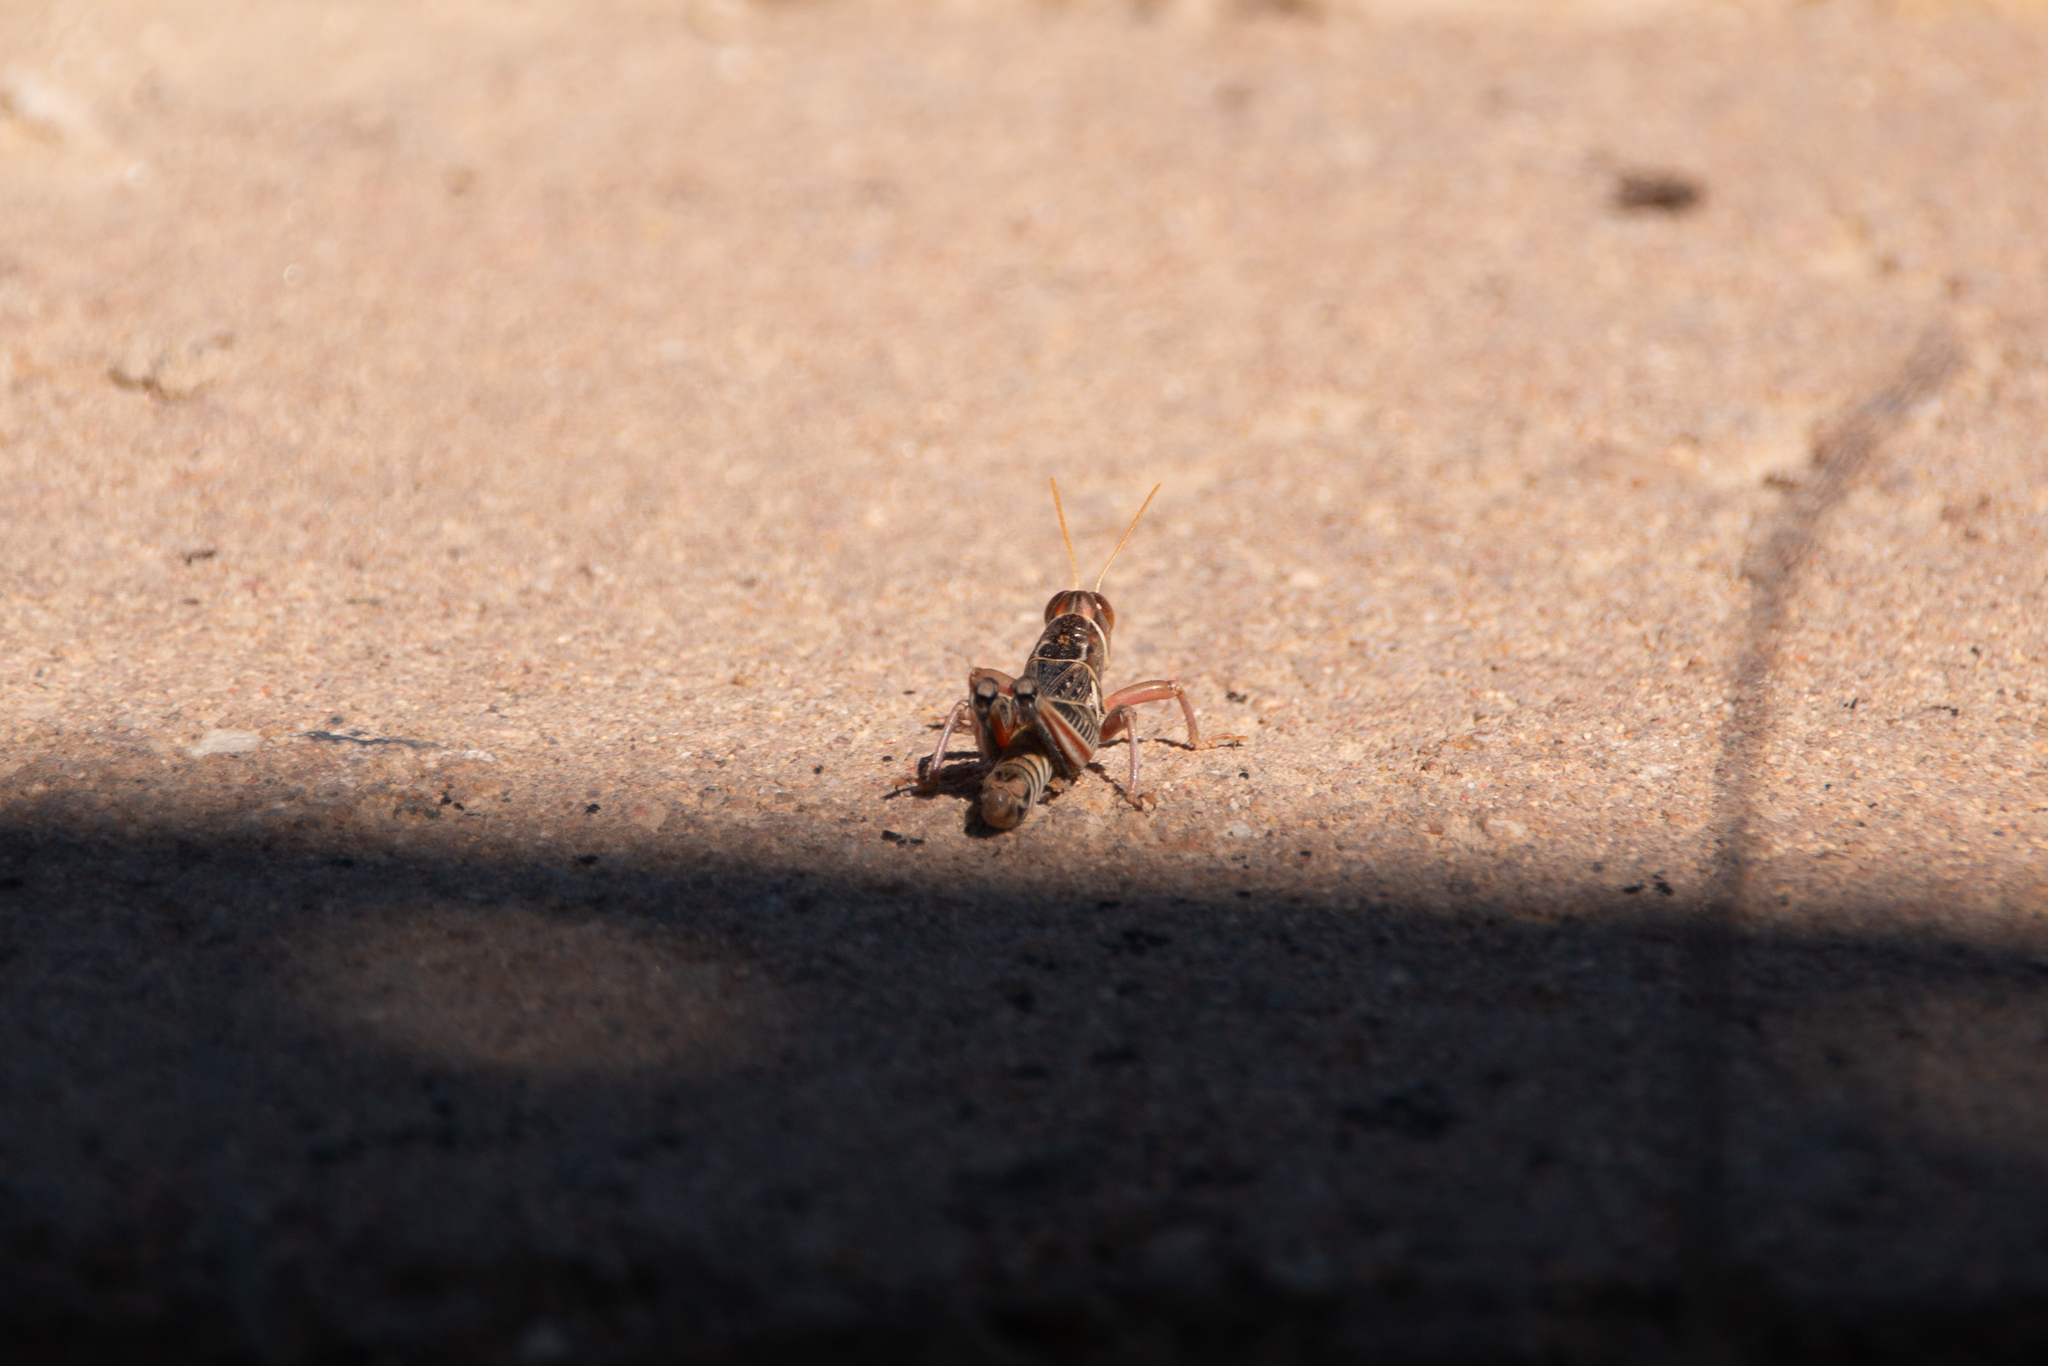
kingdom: Animalia
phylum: Arthropoda
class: Insecta
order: Orthoptera
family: Acrididae
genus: Oedaleonotus
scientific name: Oedaleonotus enigma
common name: Valley grasshopper
